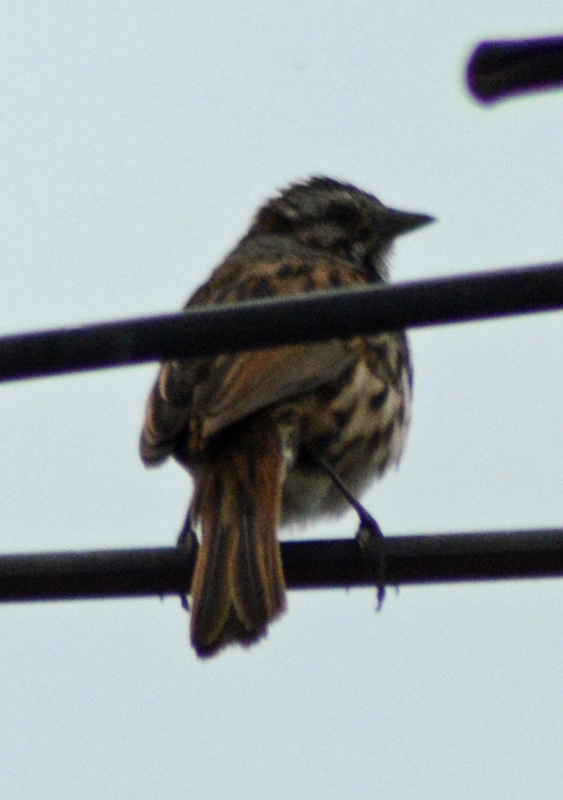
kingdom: Animalia
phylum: Chordata
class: Aves
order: Passeriformes
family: Passerellidae
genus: Melospiza
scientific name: Melospiza melodia
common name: Song sparrow
